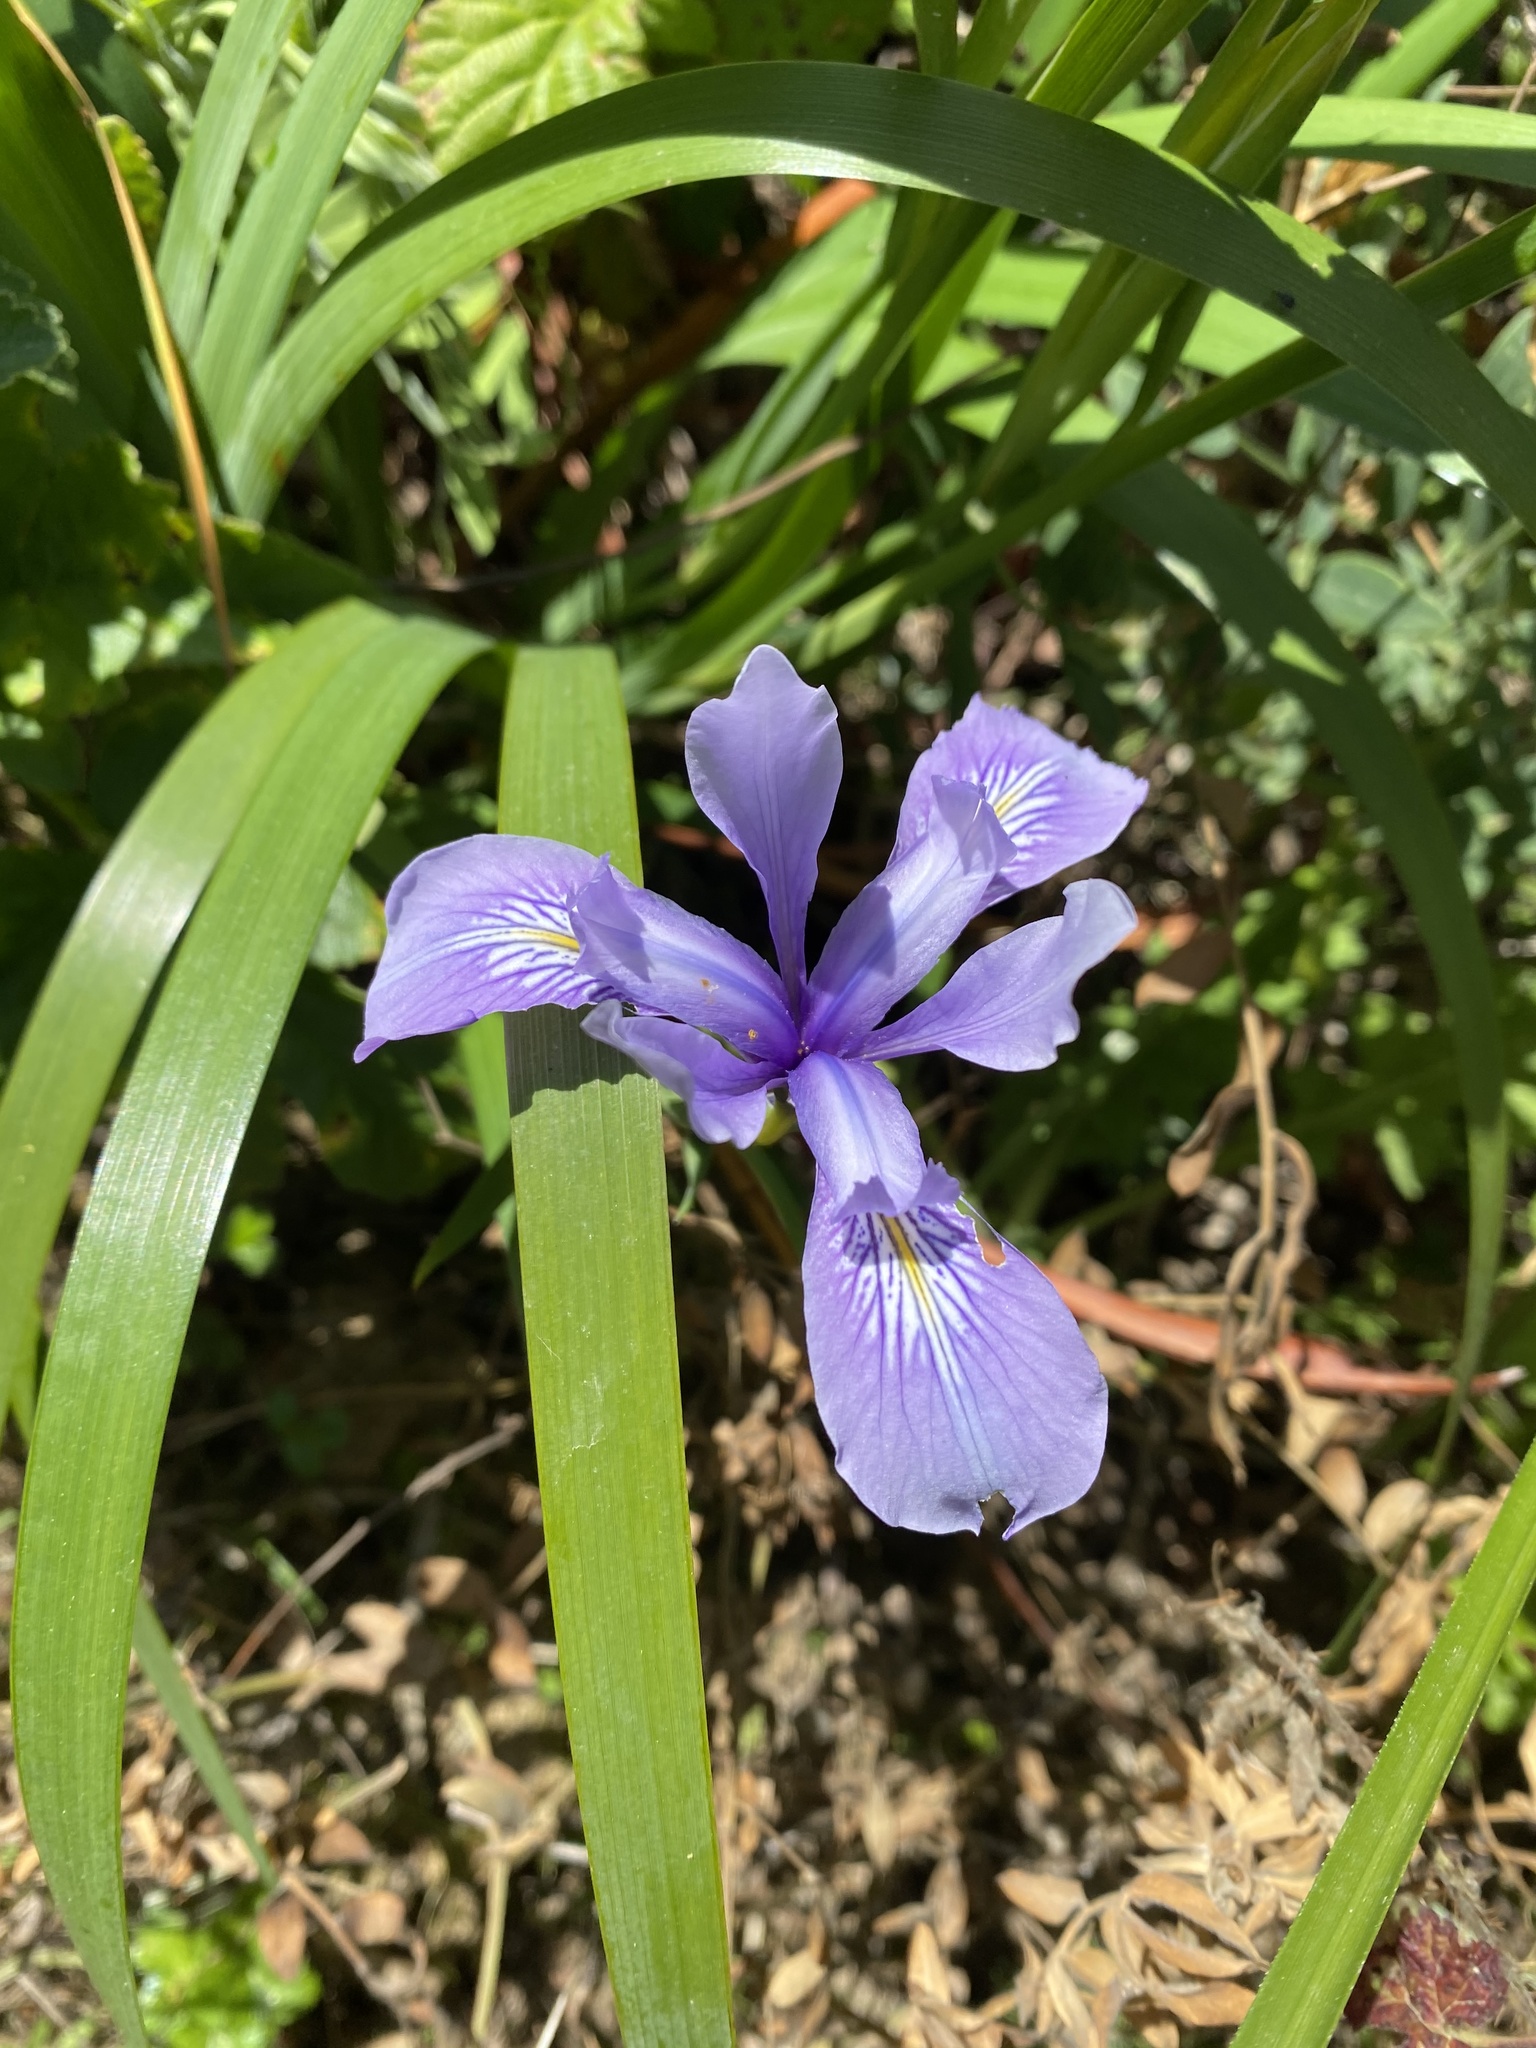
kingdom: Plantae
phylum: Tracheophyta
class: Liliopsida
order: Asparagales
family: Iridaceae
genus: Iris
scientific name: Iris douglasiana
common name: Marin iris
